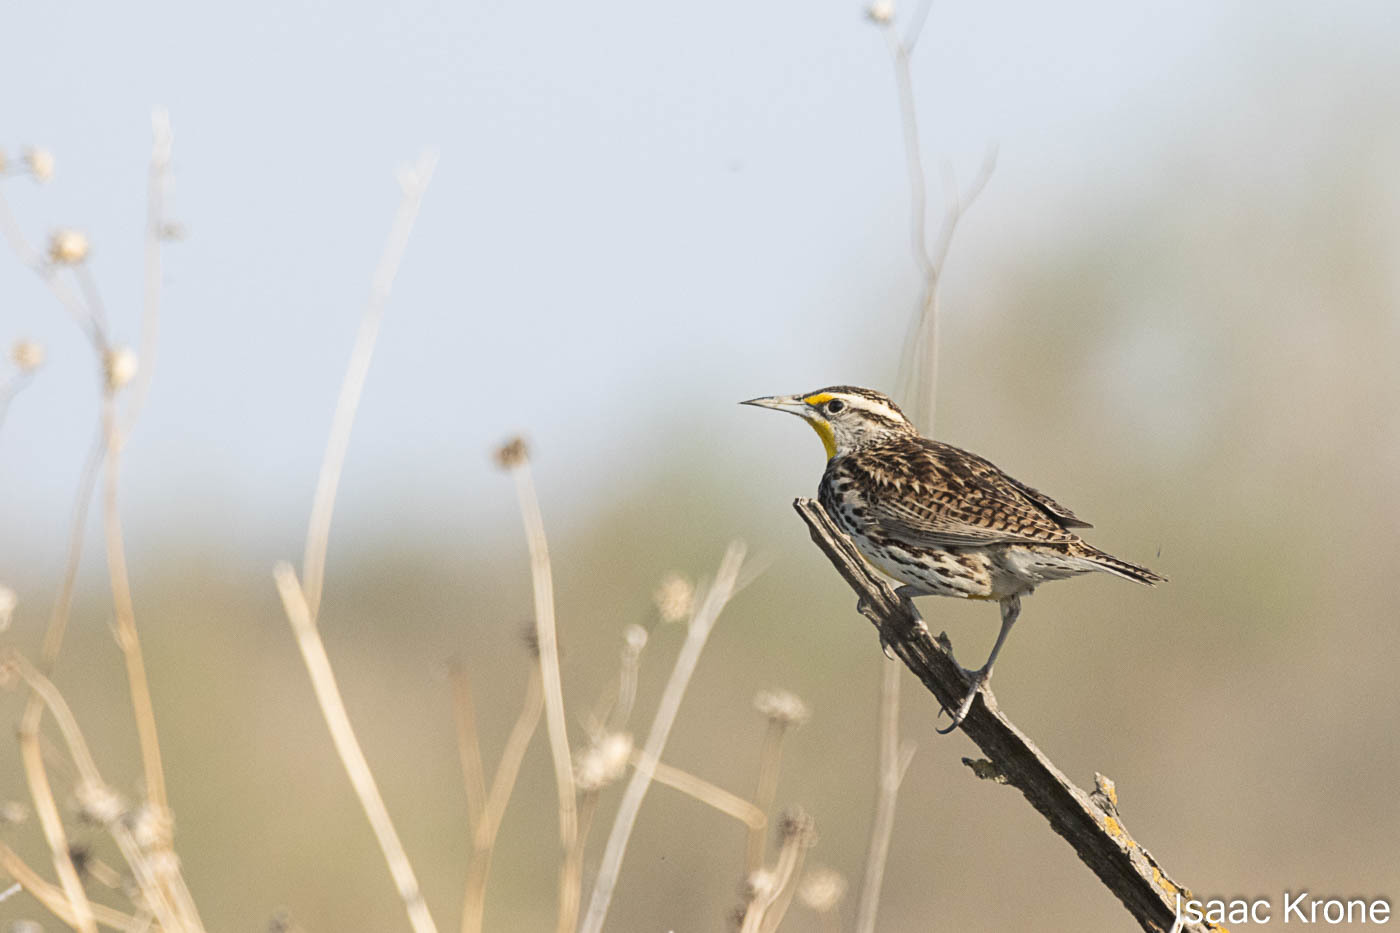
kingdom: Animalia
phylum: Chordata
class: Aves
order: Passeriformes
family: Icteridae
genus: Sturnella
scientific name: Sturnella neglecta
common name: Western meadowlark
